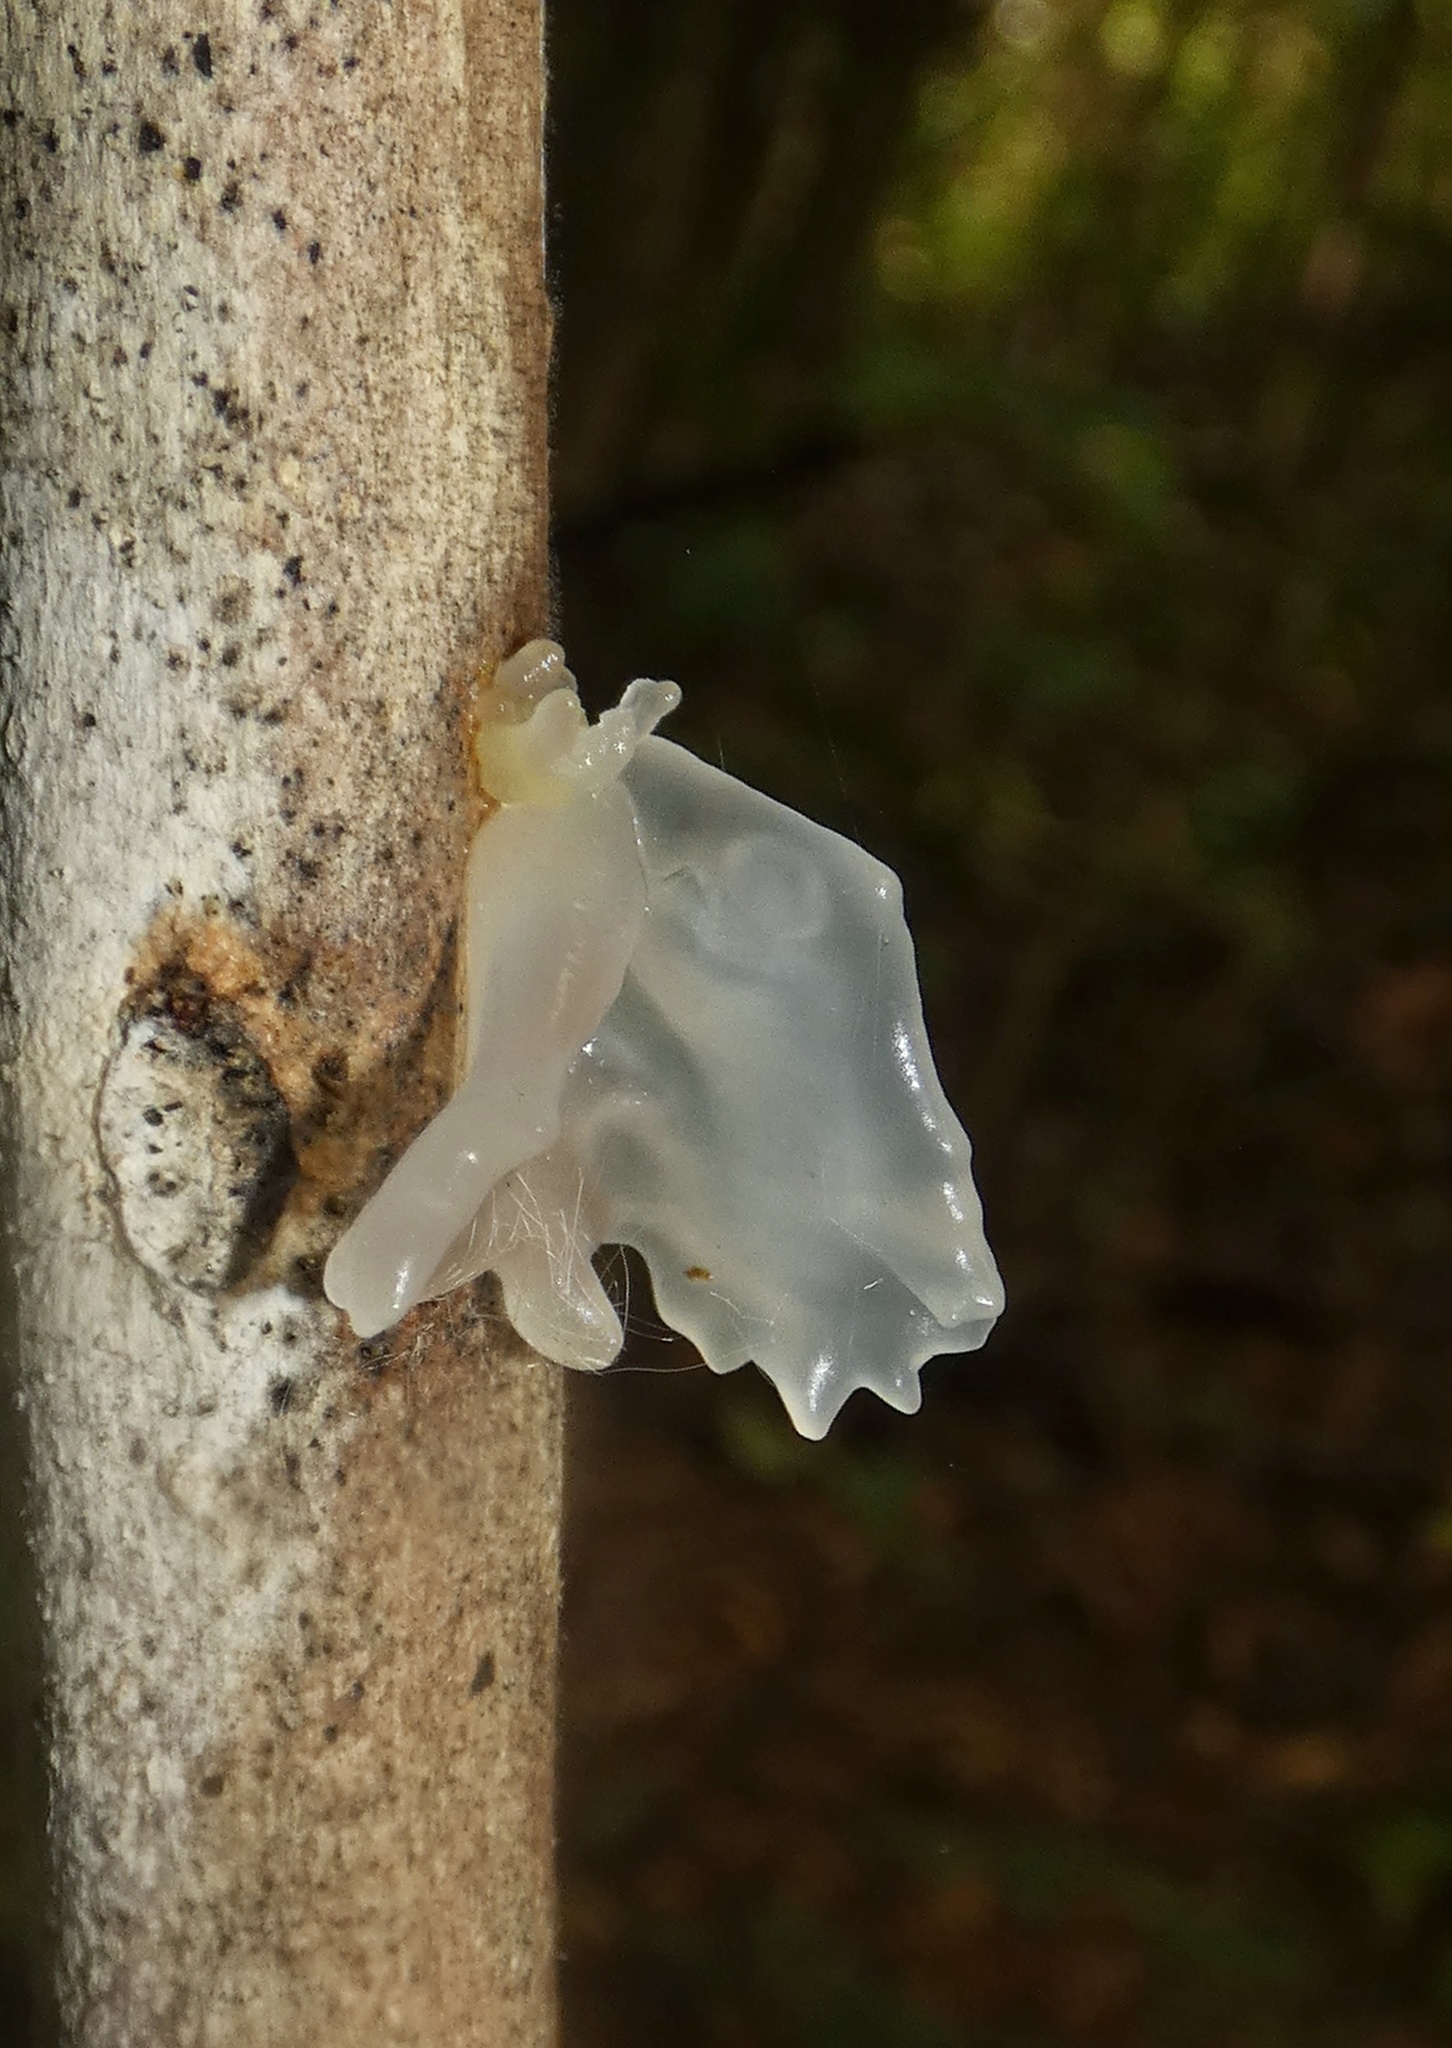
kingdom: Fungi
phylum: Basidiomycota
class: Tremellomycetes
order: Tremellales
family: Tremellaceae
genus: Tremella
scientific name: Tremella fuciformis
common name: Snow fungus
